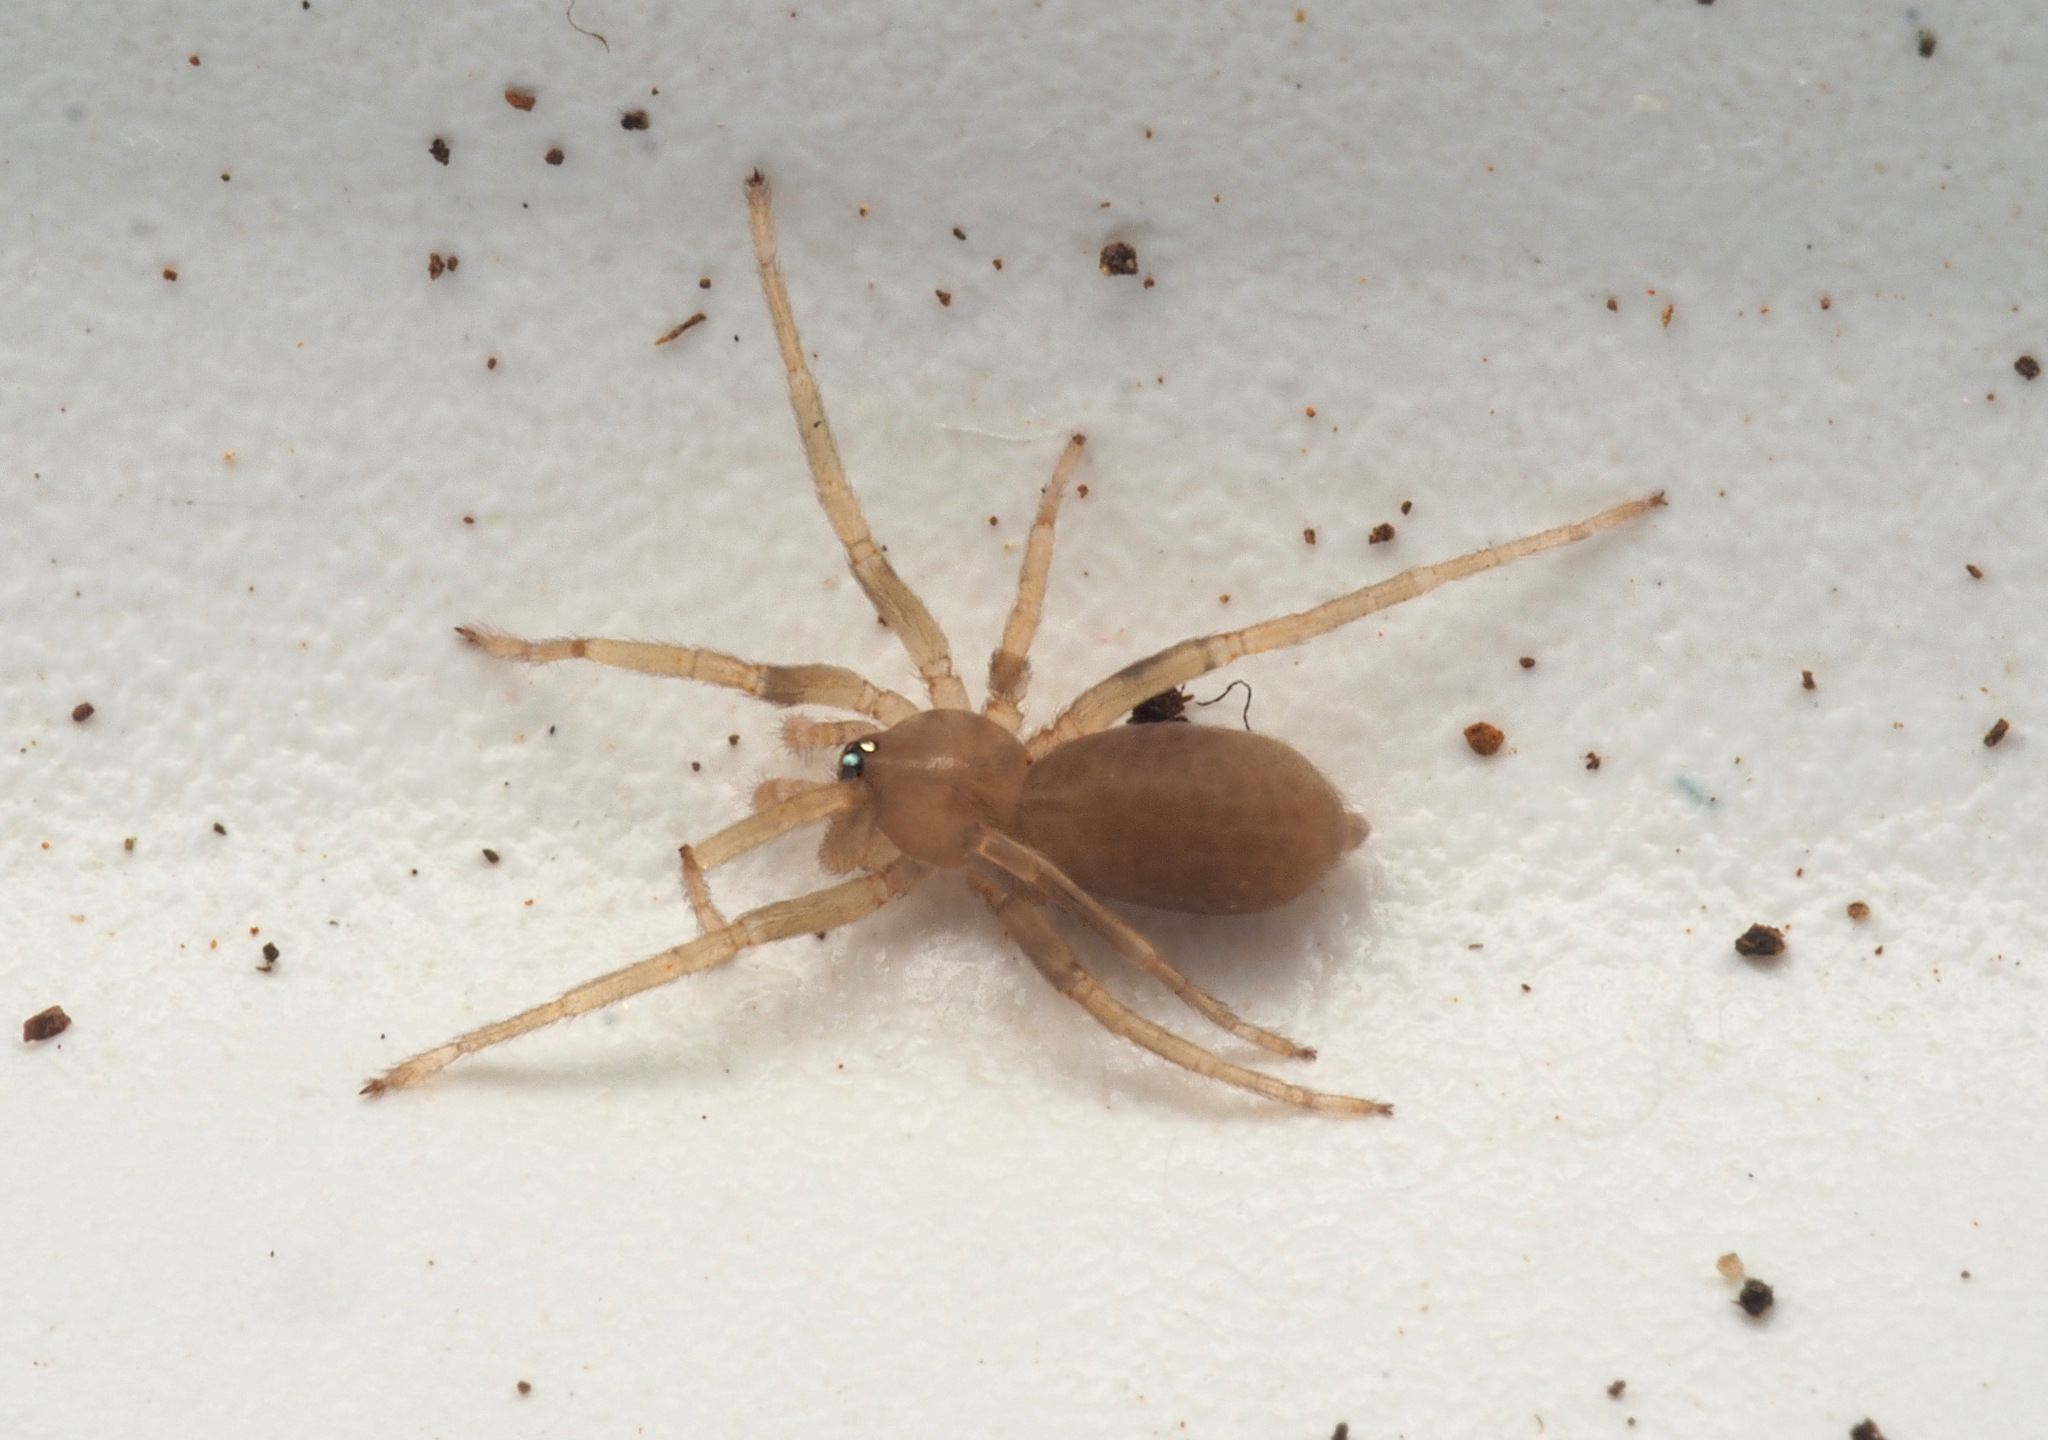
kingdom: Animalia
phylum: Arthropoda
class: Arachnida
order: Araneae
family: Orsolobidae
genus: Tasmanoonops
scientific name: Tasmanoonops
